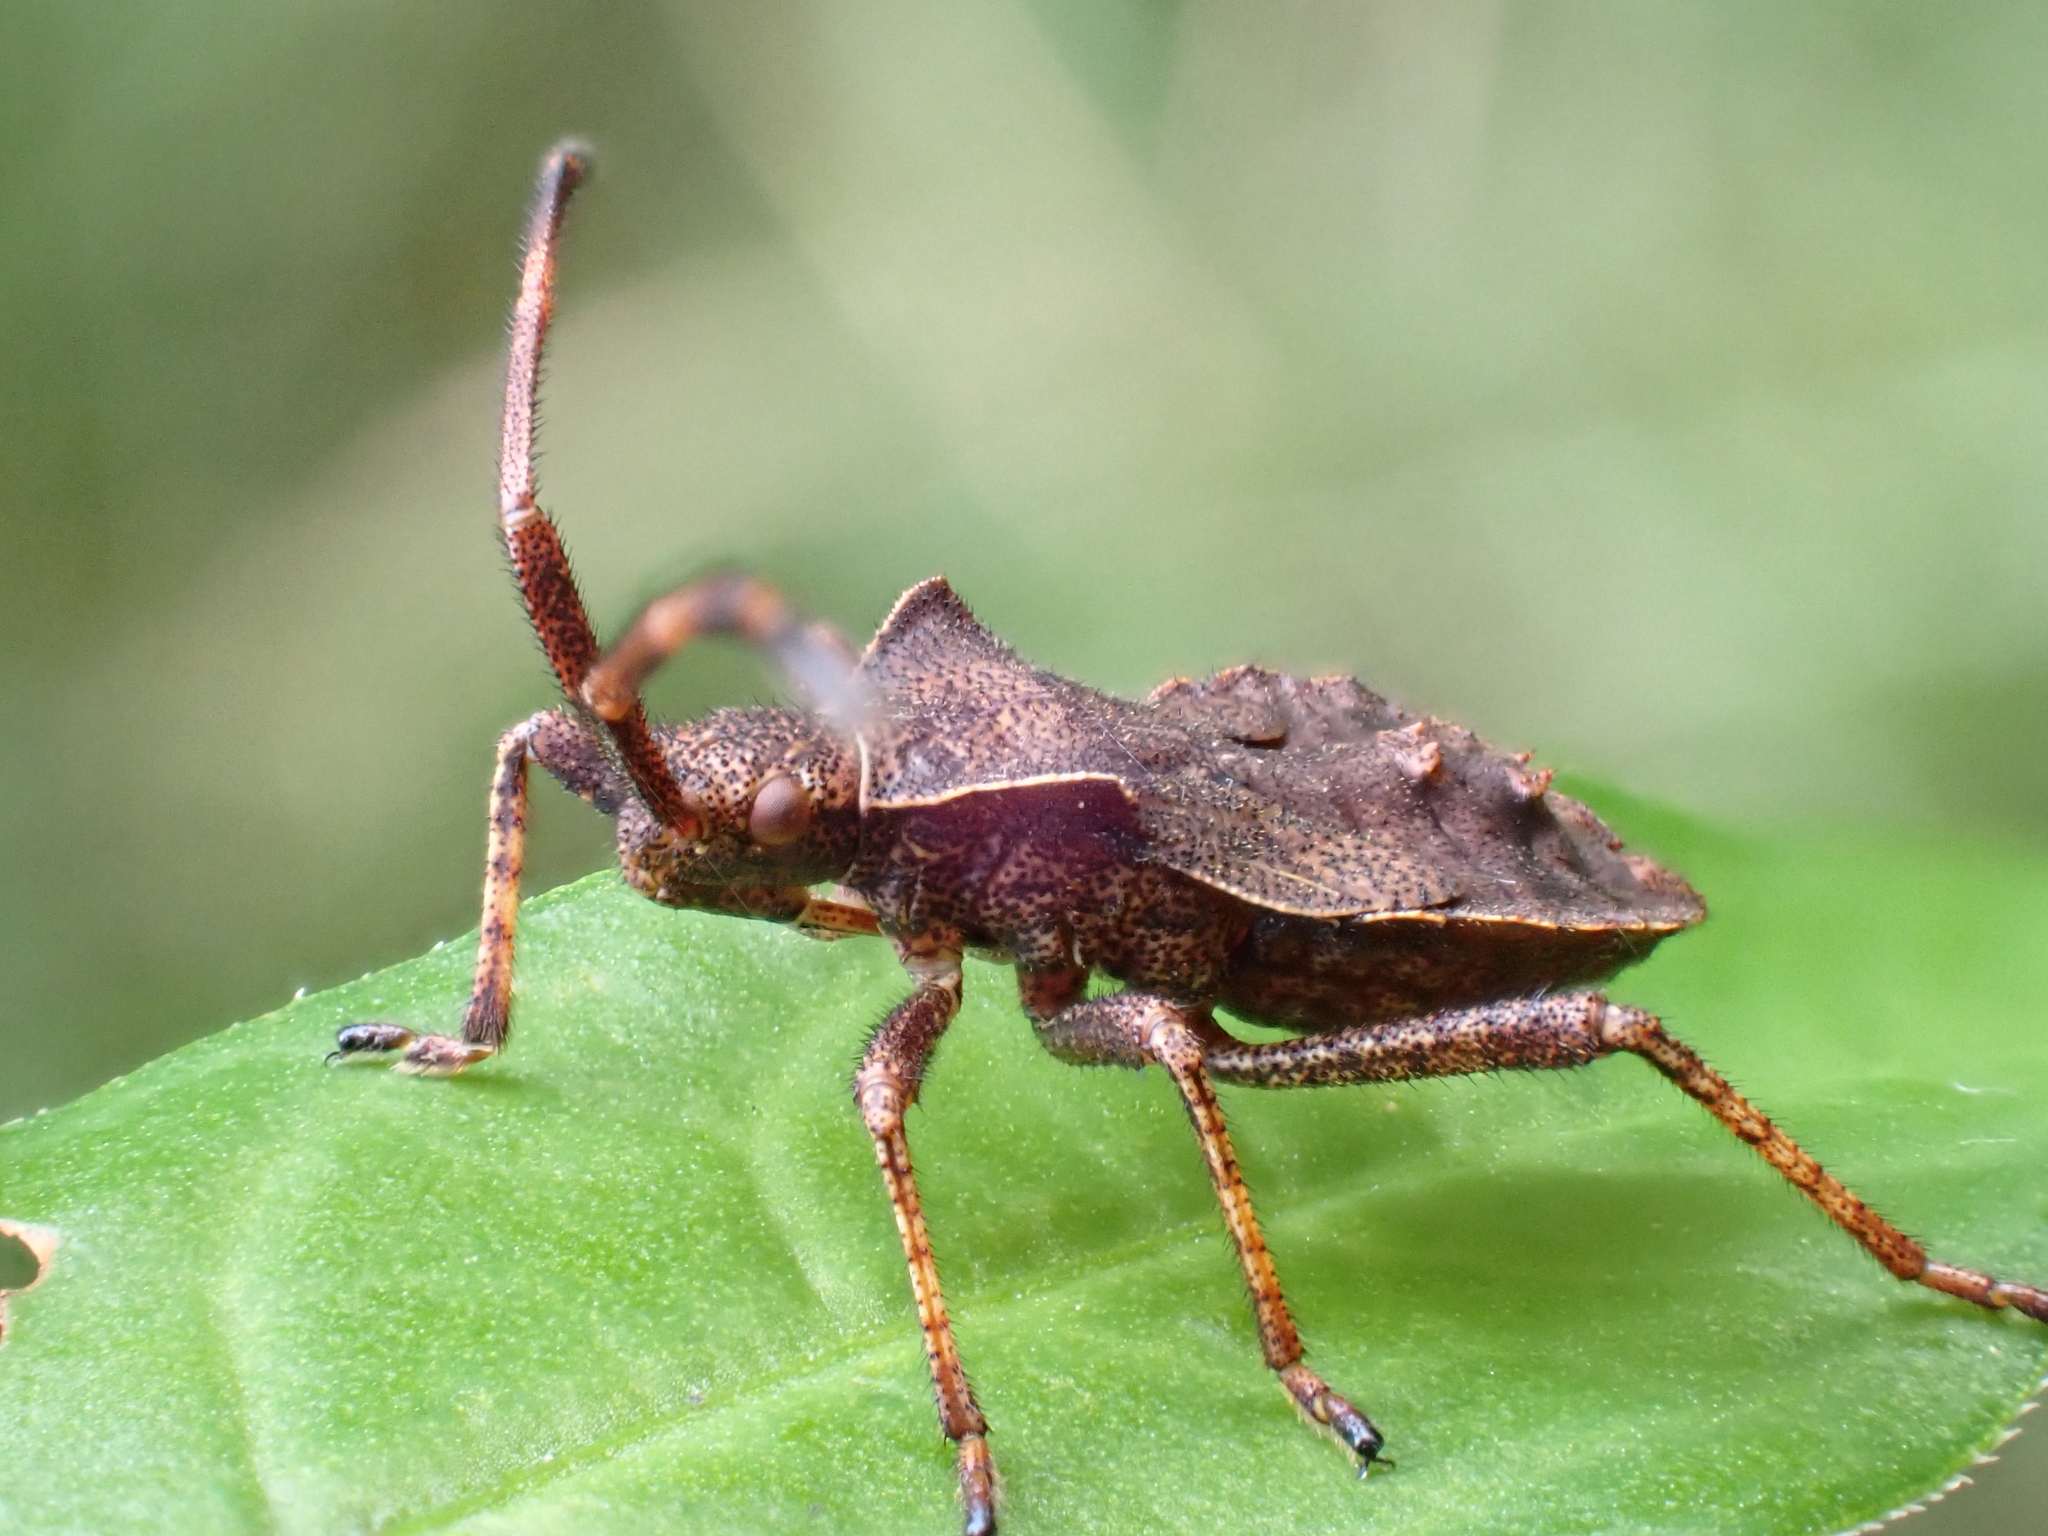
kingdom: Animalia
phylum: Arthropoda
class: Insecta
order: Hemiptera
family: Coreidae
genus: Coreus
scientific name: Coreus marginatus
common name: Dock bug
